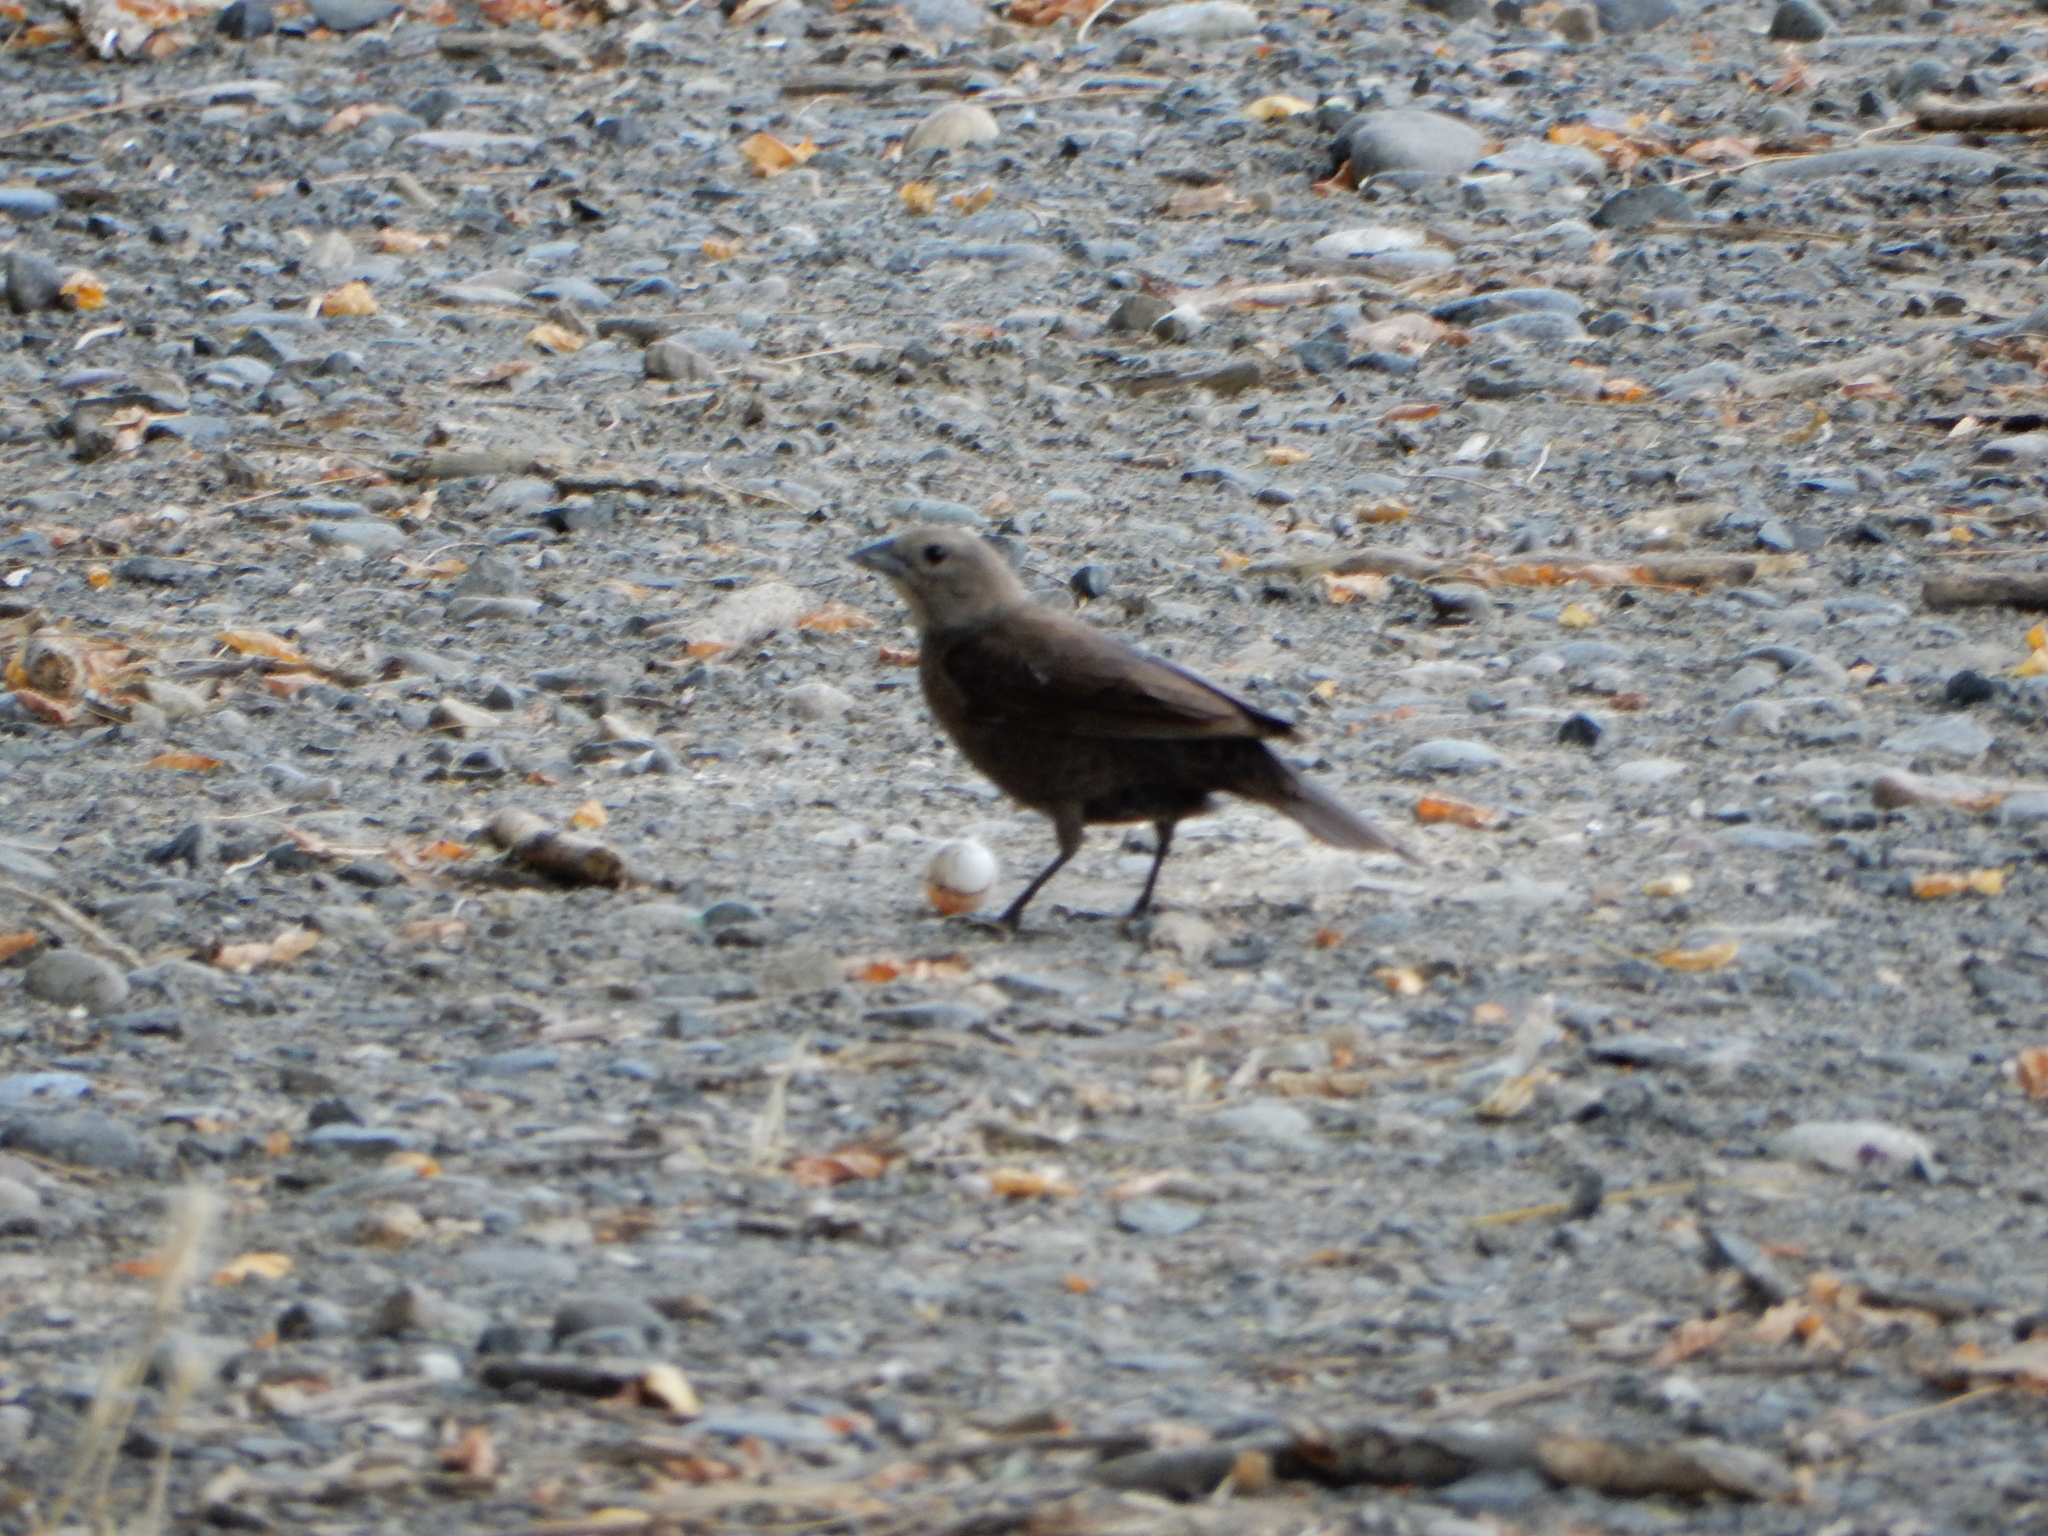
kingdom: Animalia
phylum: Chordata
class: Aves
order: Passeriformes
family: Icteridae
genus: Molothrus
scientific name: Molothrus ater
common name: Brown-headed cowbird
